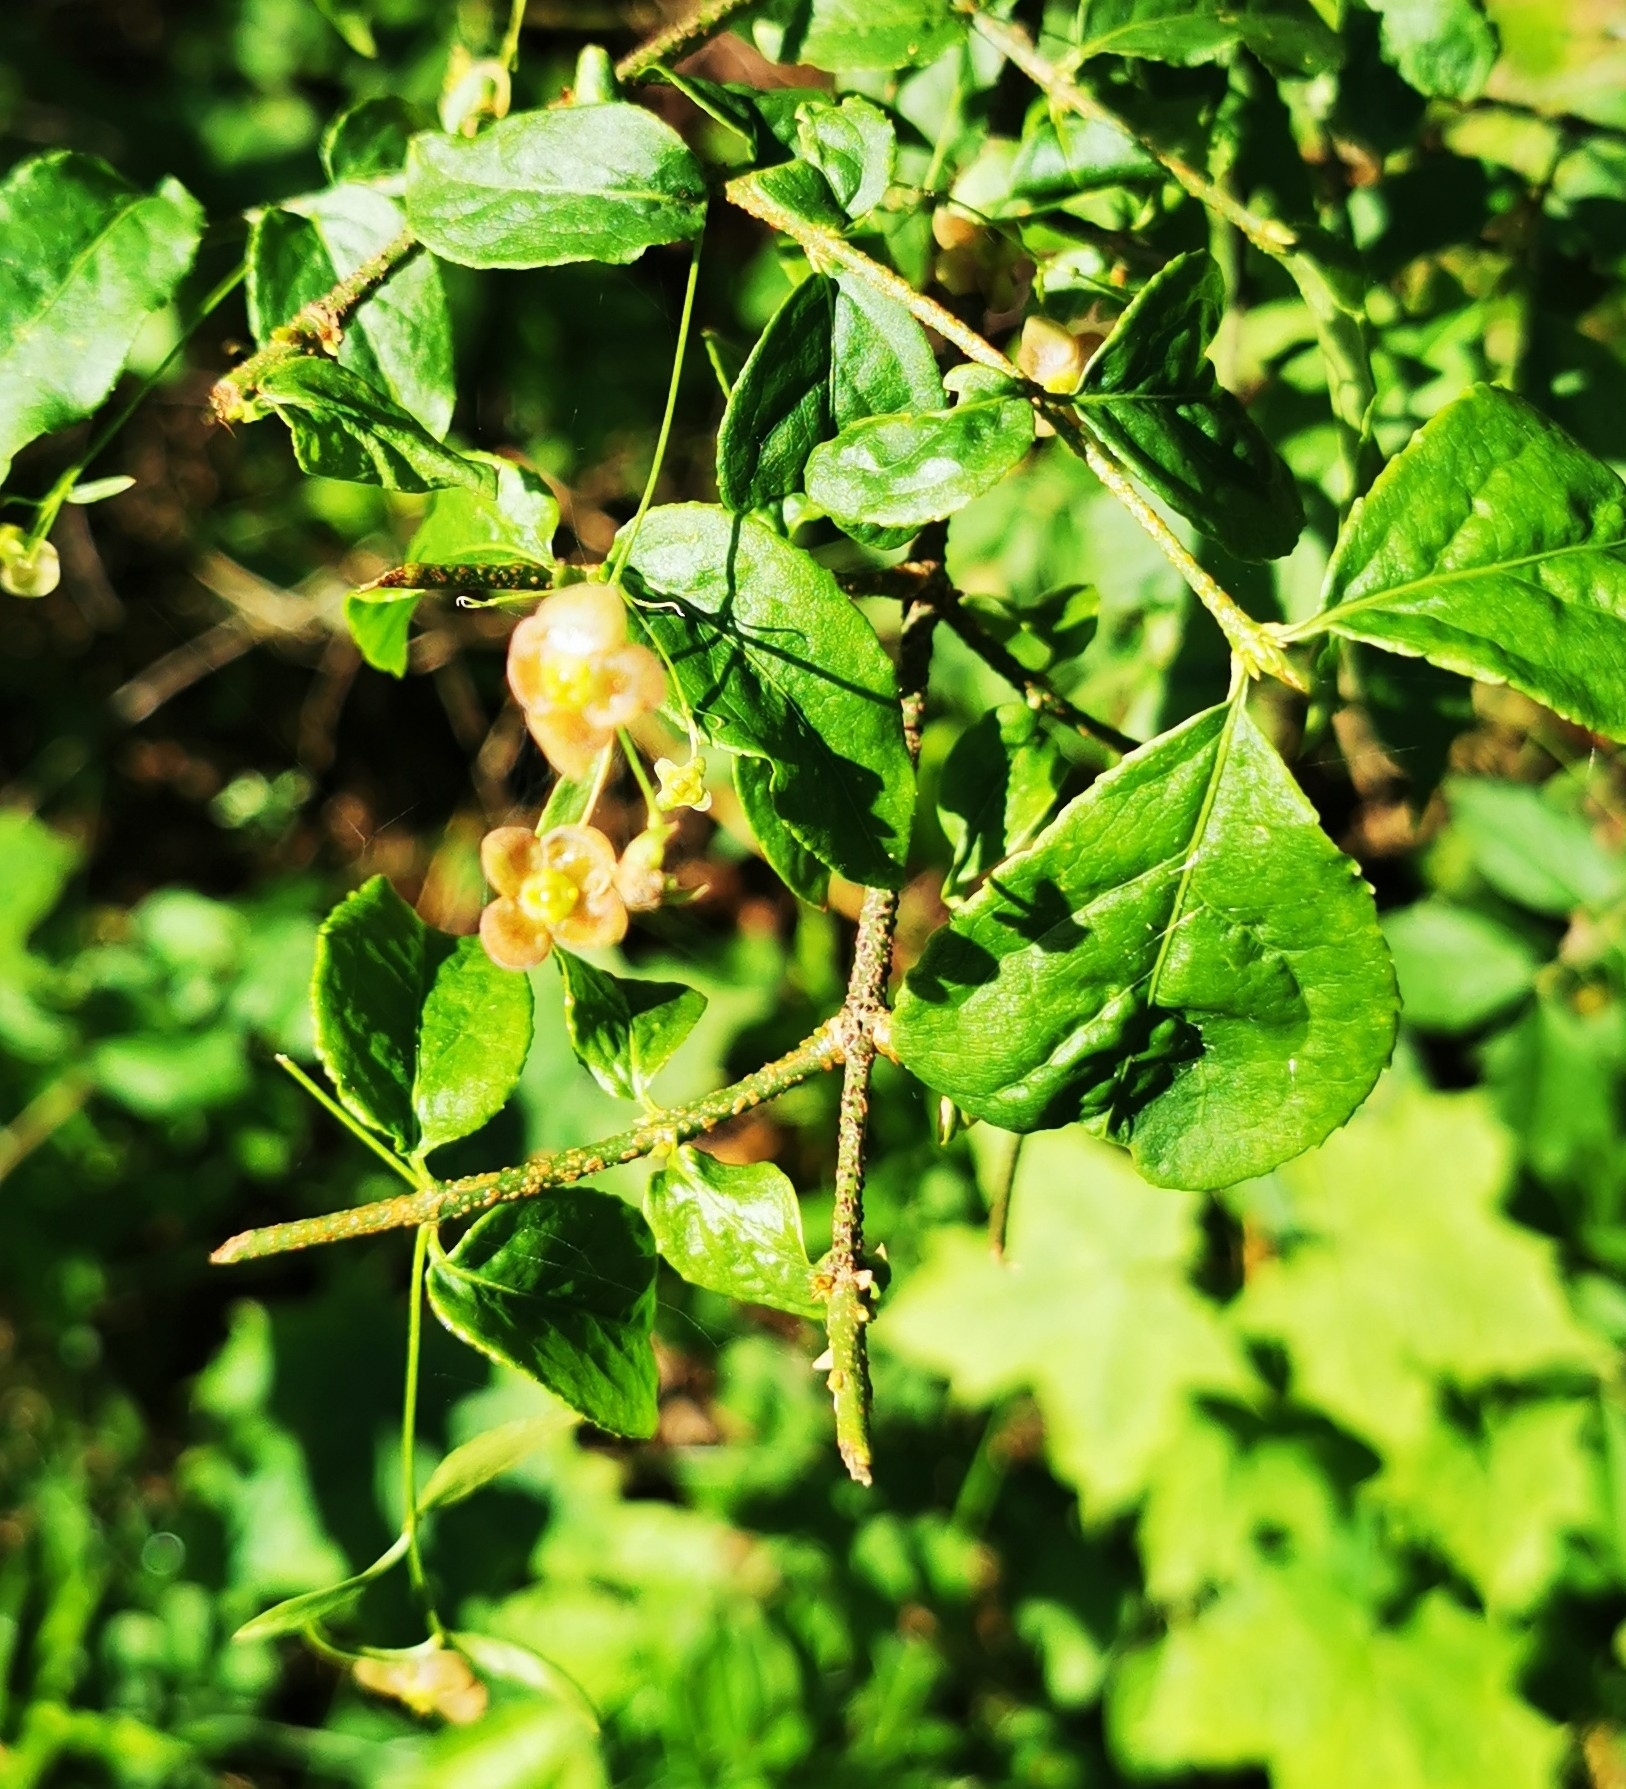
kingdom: Plantae
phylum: Tracheophyta
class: Magnoliopsida
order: Celastrales
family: Celastraceae
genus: Euonymus
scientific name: Euonymus verrucosus
